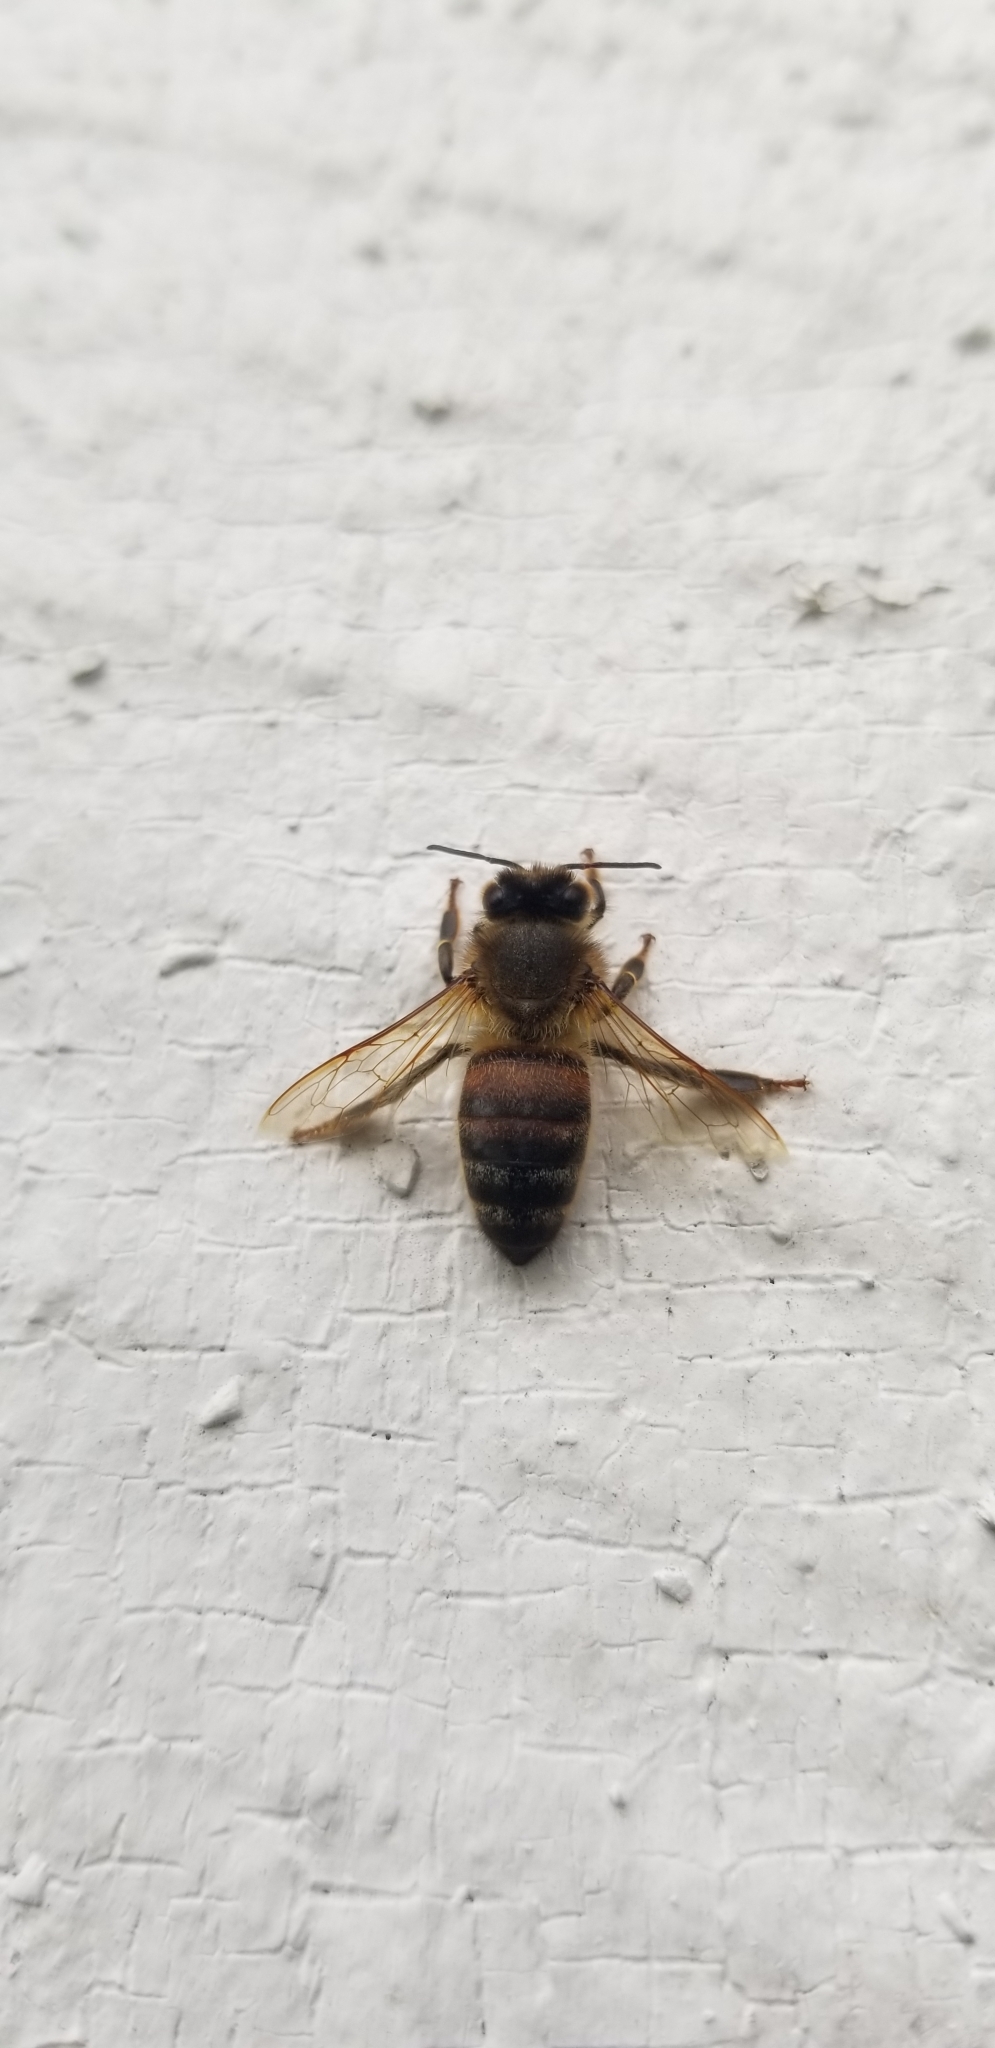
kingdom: Animalia
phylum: Arthropoda
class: Insecta
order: Hymenoptera
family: Apidae
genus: Apis
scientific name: Apis mellifera
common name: Honey bee
